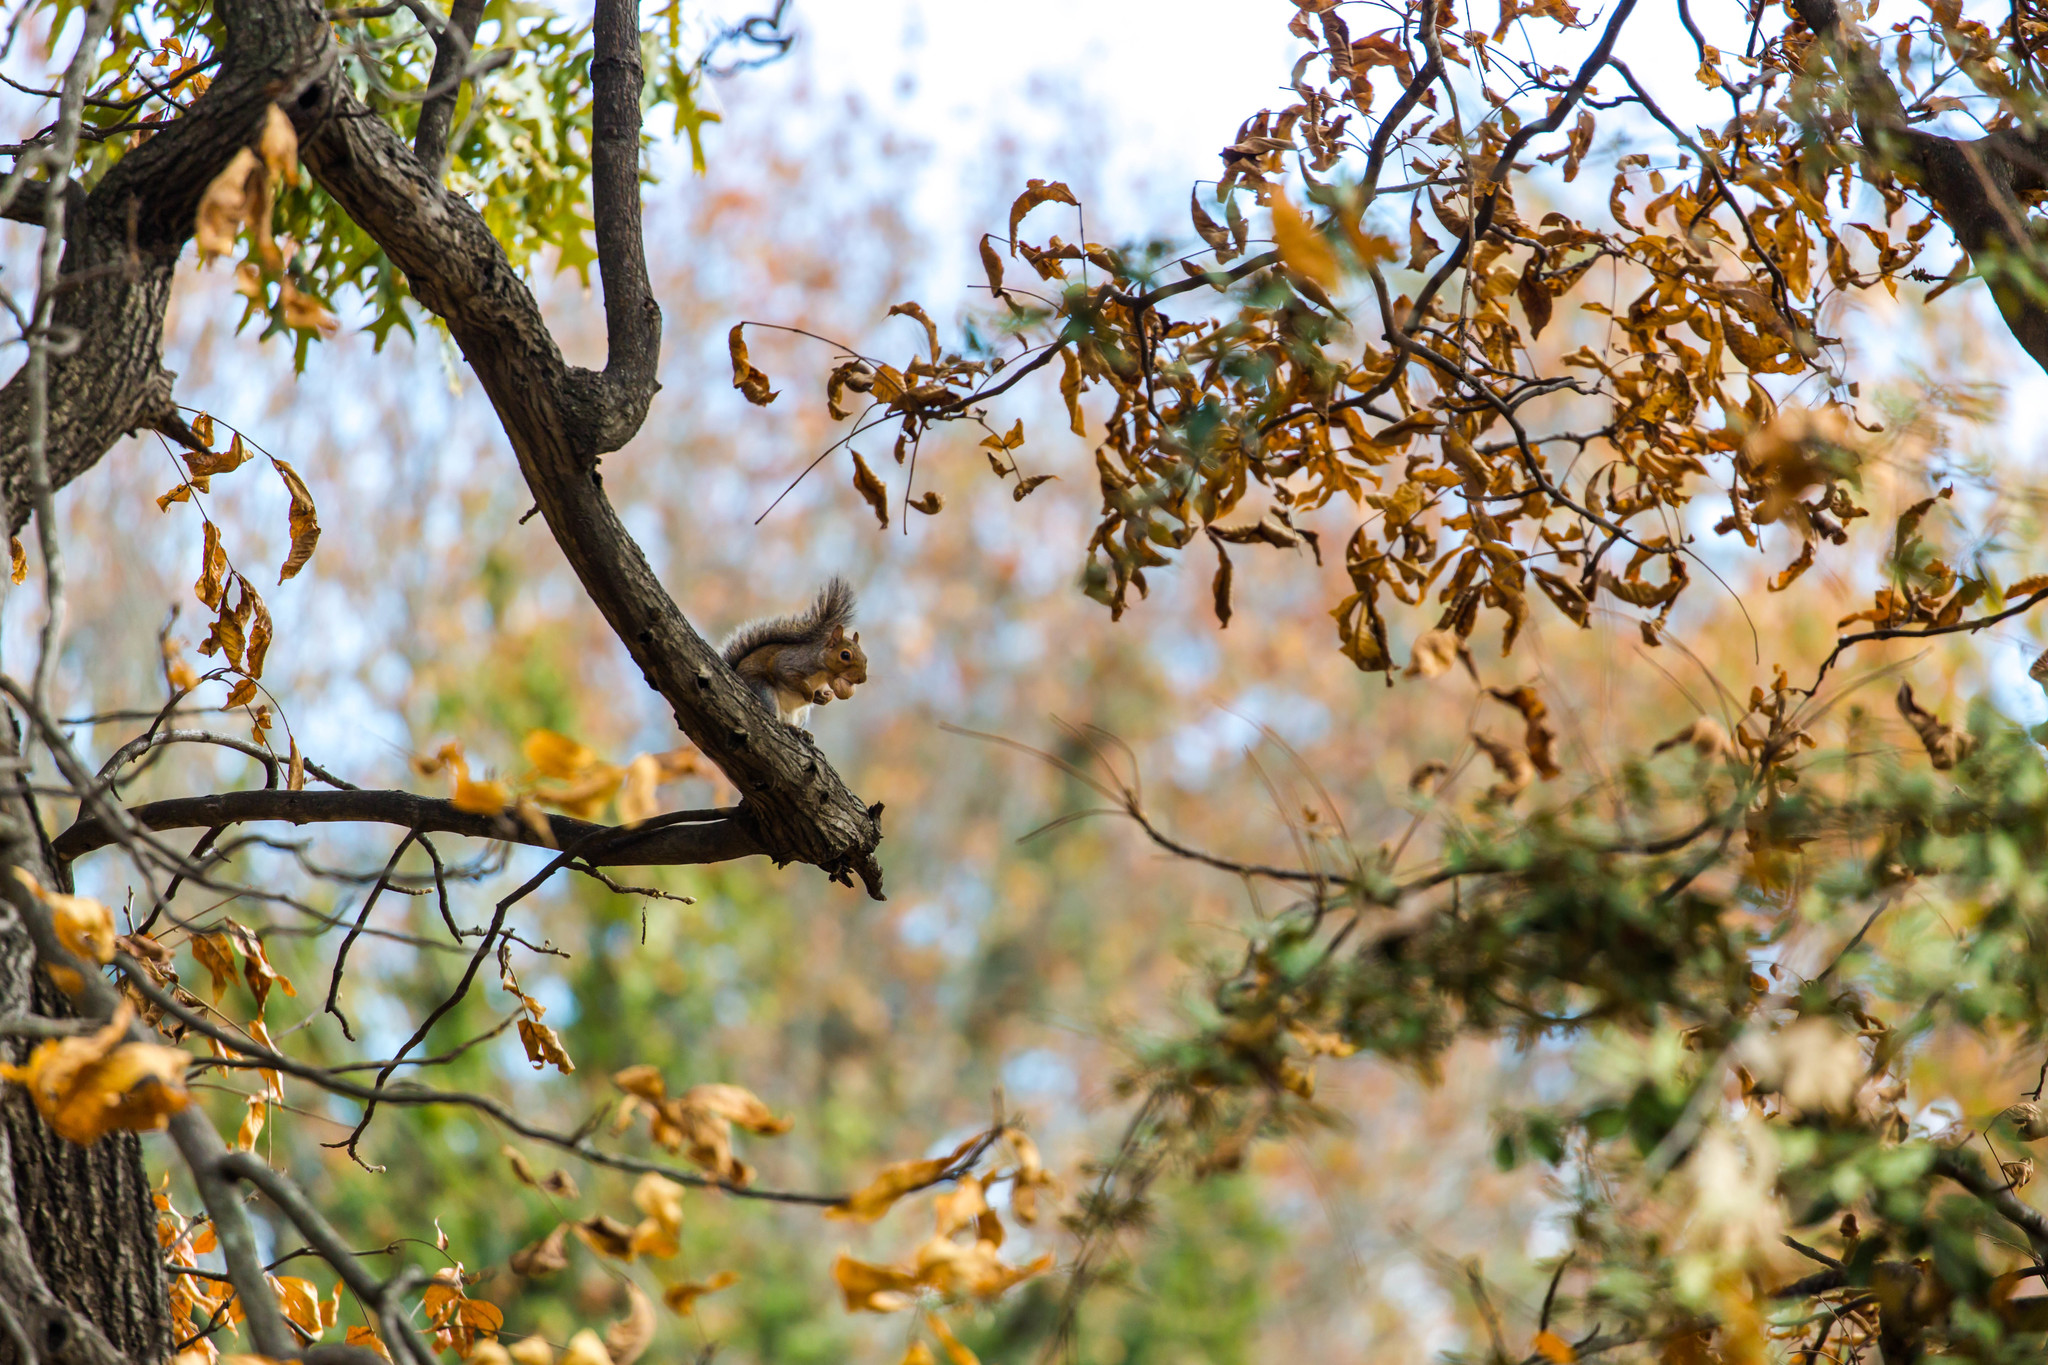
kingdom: Animalia
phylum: Chordata
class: Mammalia
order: Rodentia
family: Sciuridae
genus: Sciurus
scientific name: Sciurus carolinensis
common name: Eastern gray squirrel
